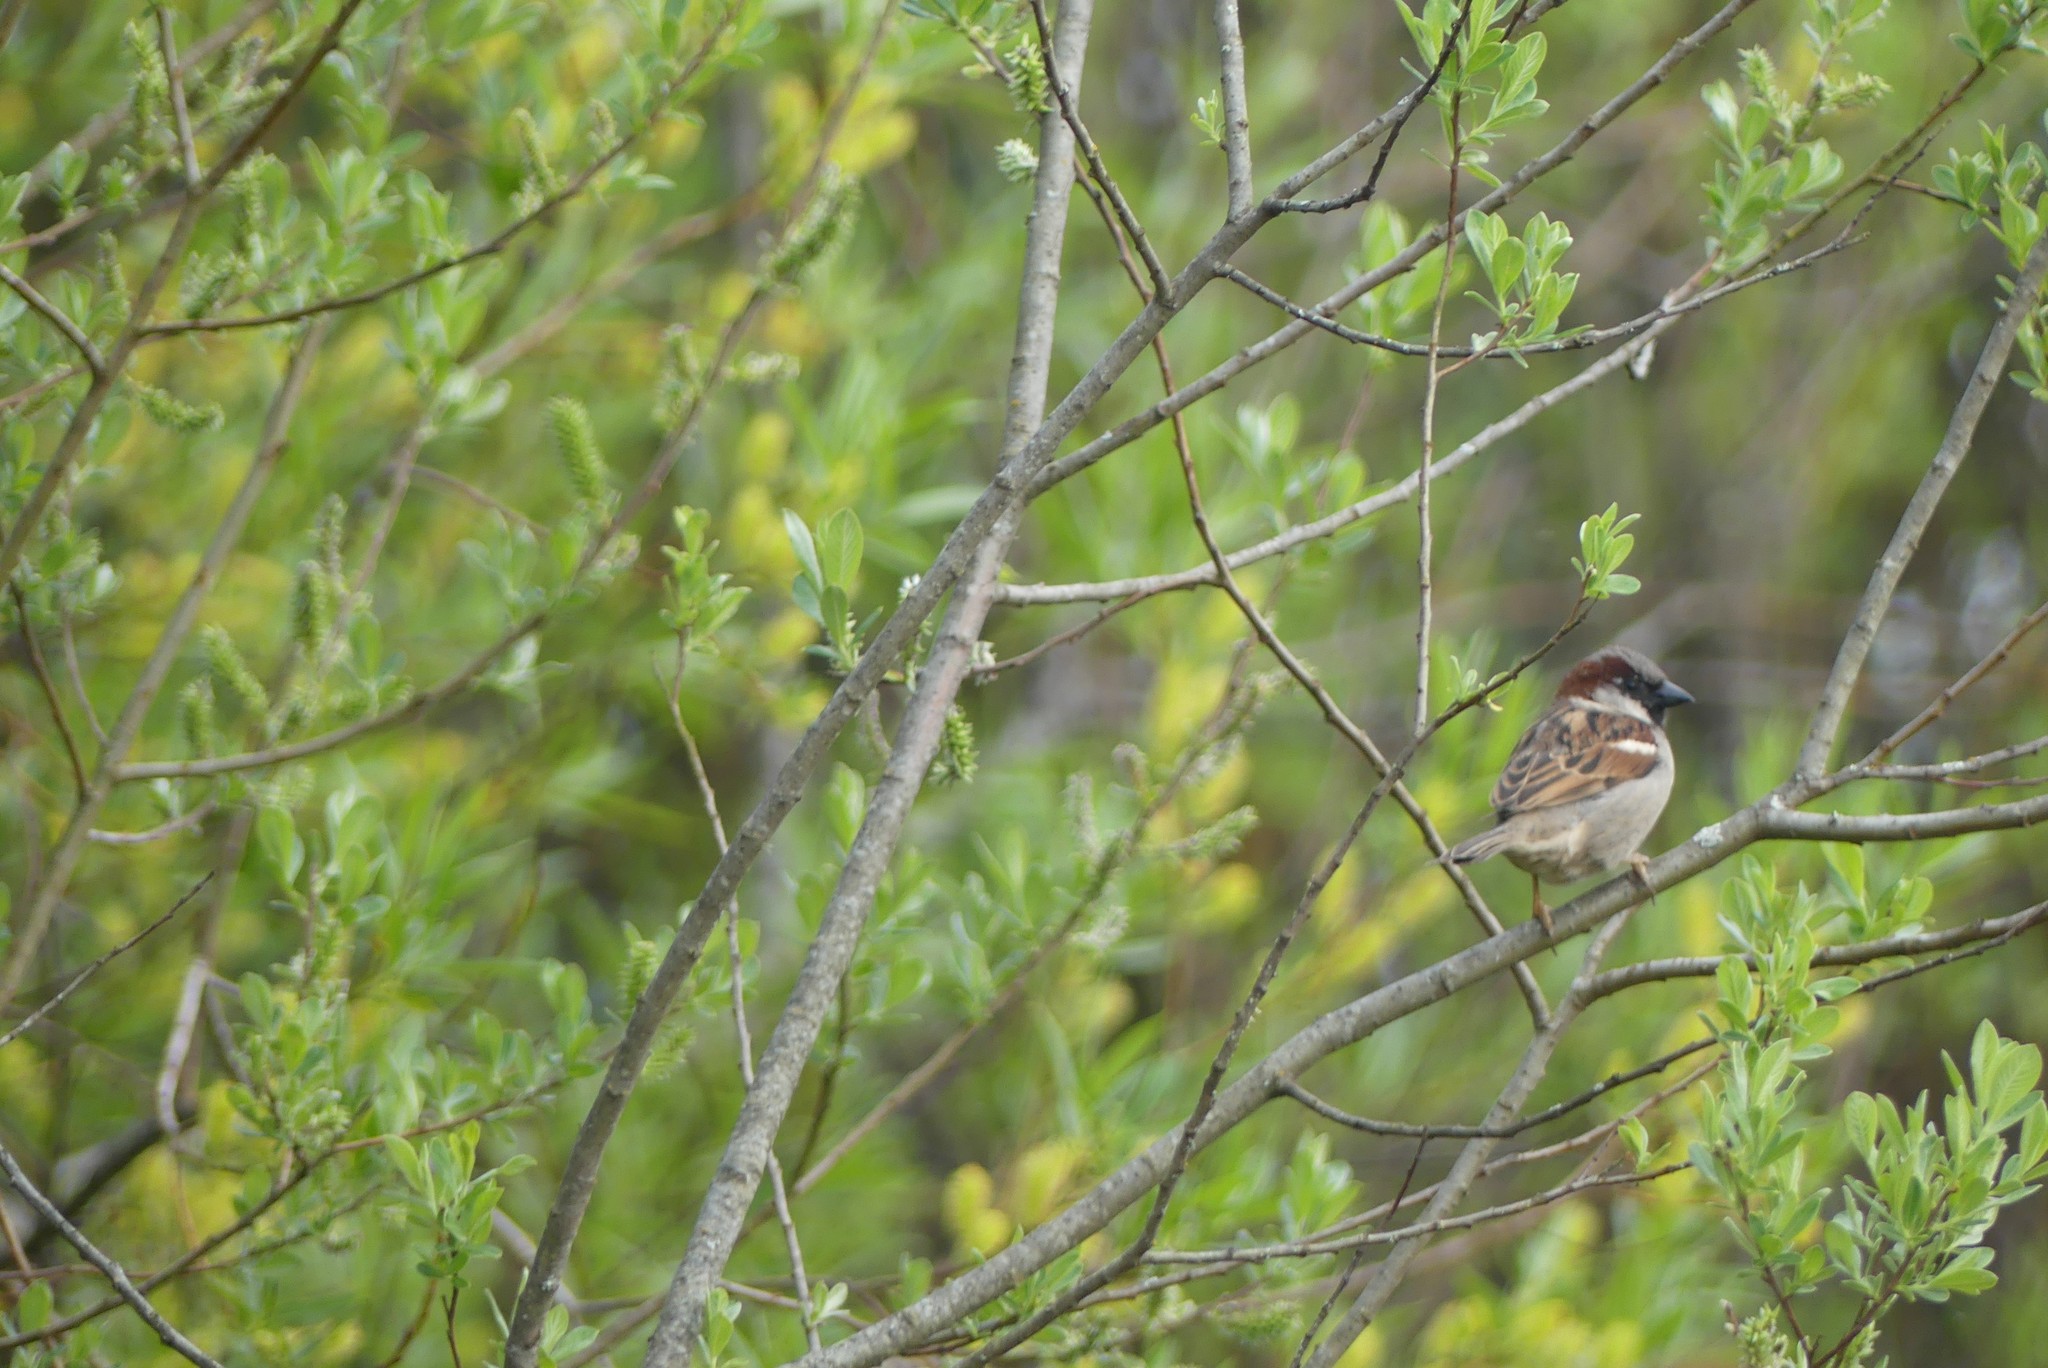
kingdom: Animalia
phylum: Chordata
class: Aves
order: Passeriformes
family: Passeridae
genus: Passer
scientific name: Passer domesticus
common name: House sparrow
